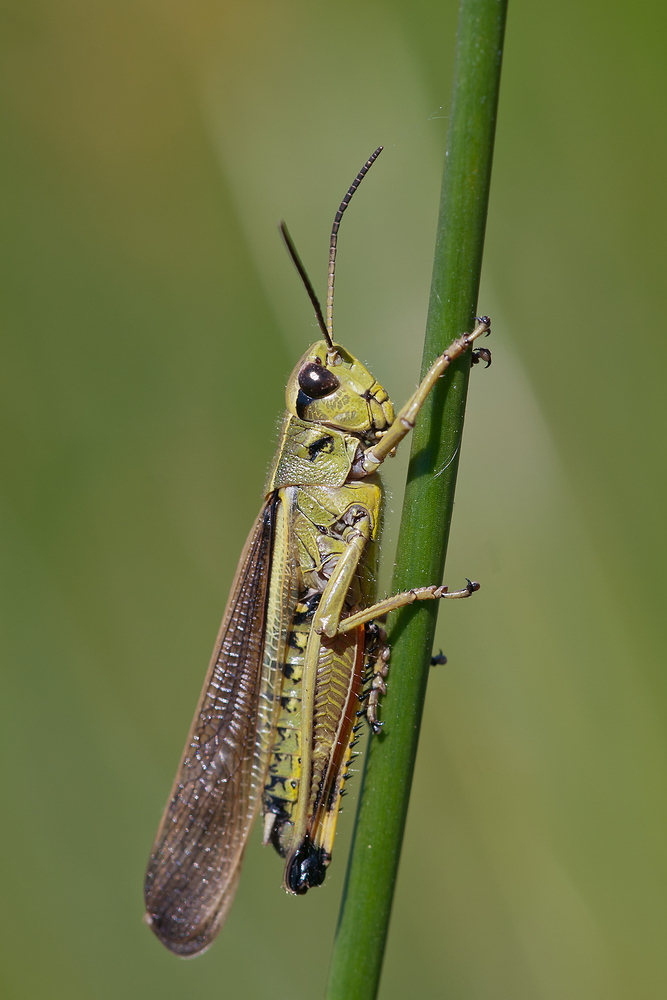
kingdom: Animalia
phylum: Arthropoda
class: Insecta
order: Orthoptera
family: Acrididae
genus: Stethophyma
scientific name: Stethophyma grossum
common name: Large marsh grasshopper
